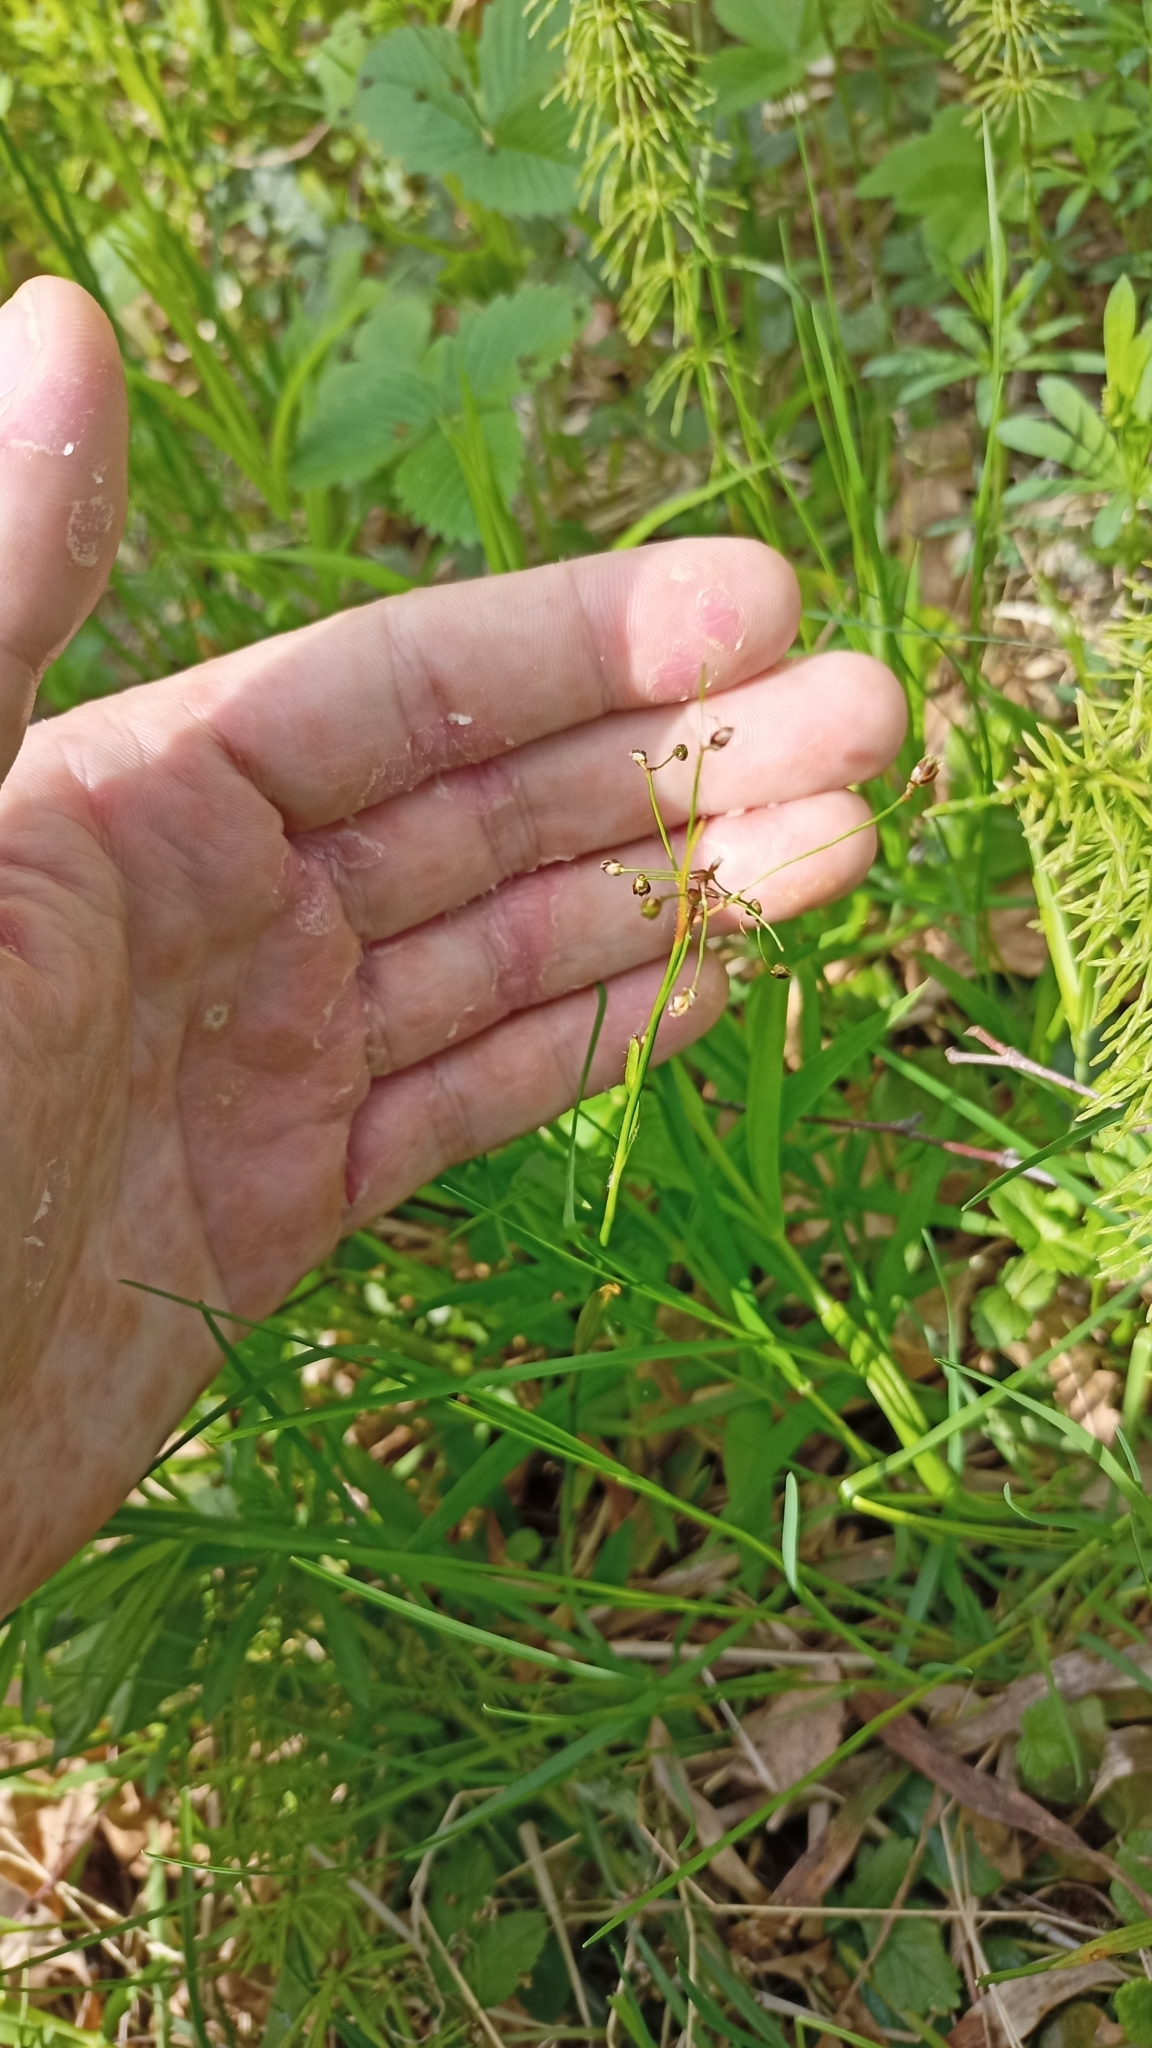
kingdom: Plantae
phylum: Tracheophyta
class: Liliopsida
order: Poales
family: Juncaceae
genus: Luzula
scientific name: Luzula pilosa
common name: Hairy wood-rush
